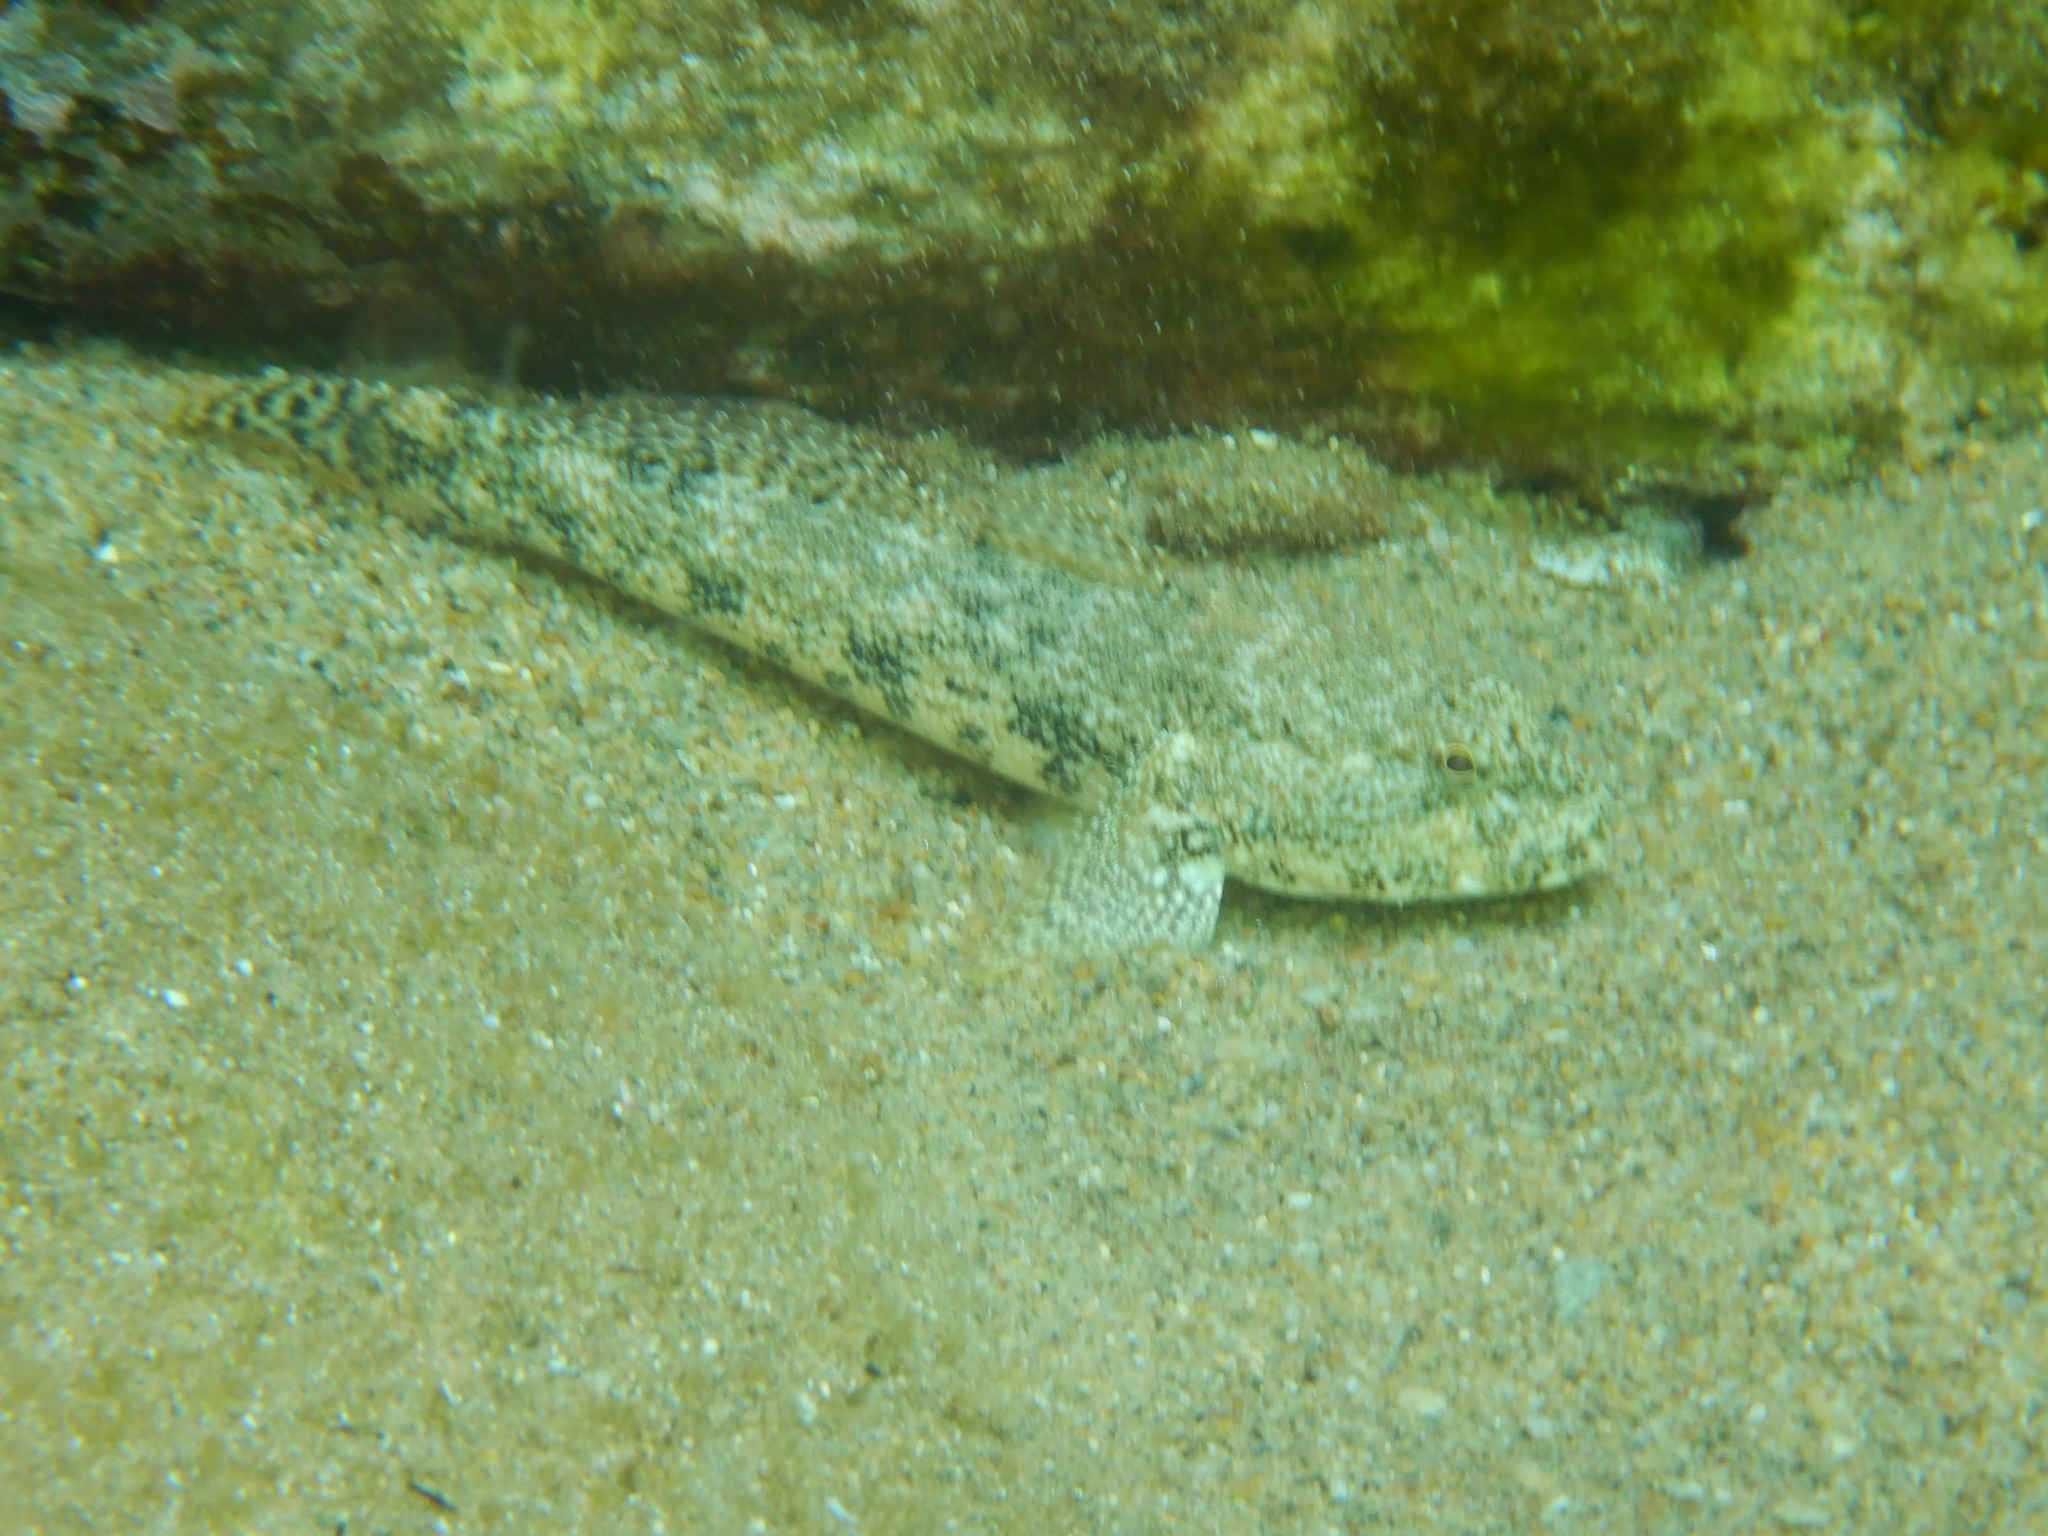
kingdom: Animalia
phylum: Chordata
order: Perciformes
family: Gobiidae
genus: Gobius
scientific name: Gobius cobitis
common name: Giant goby
